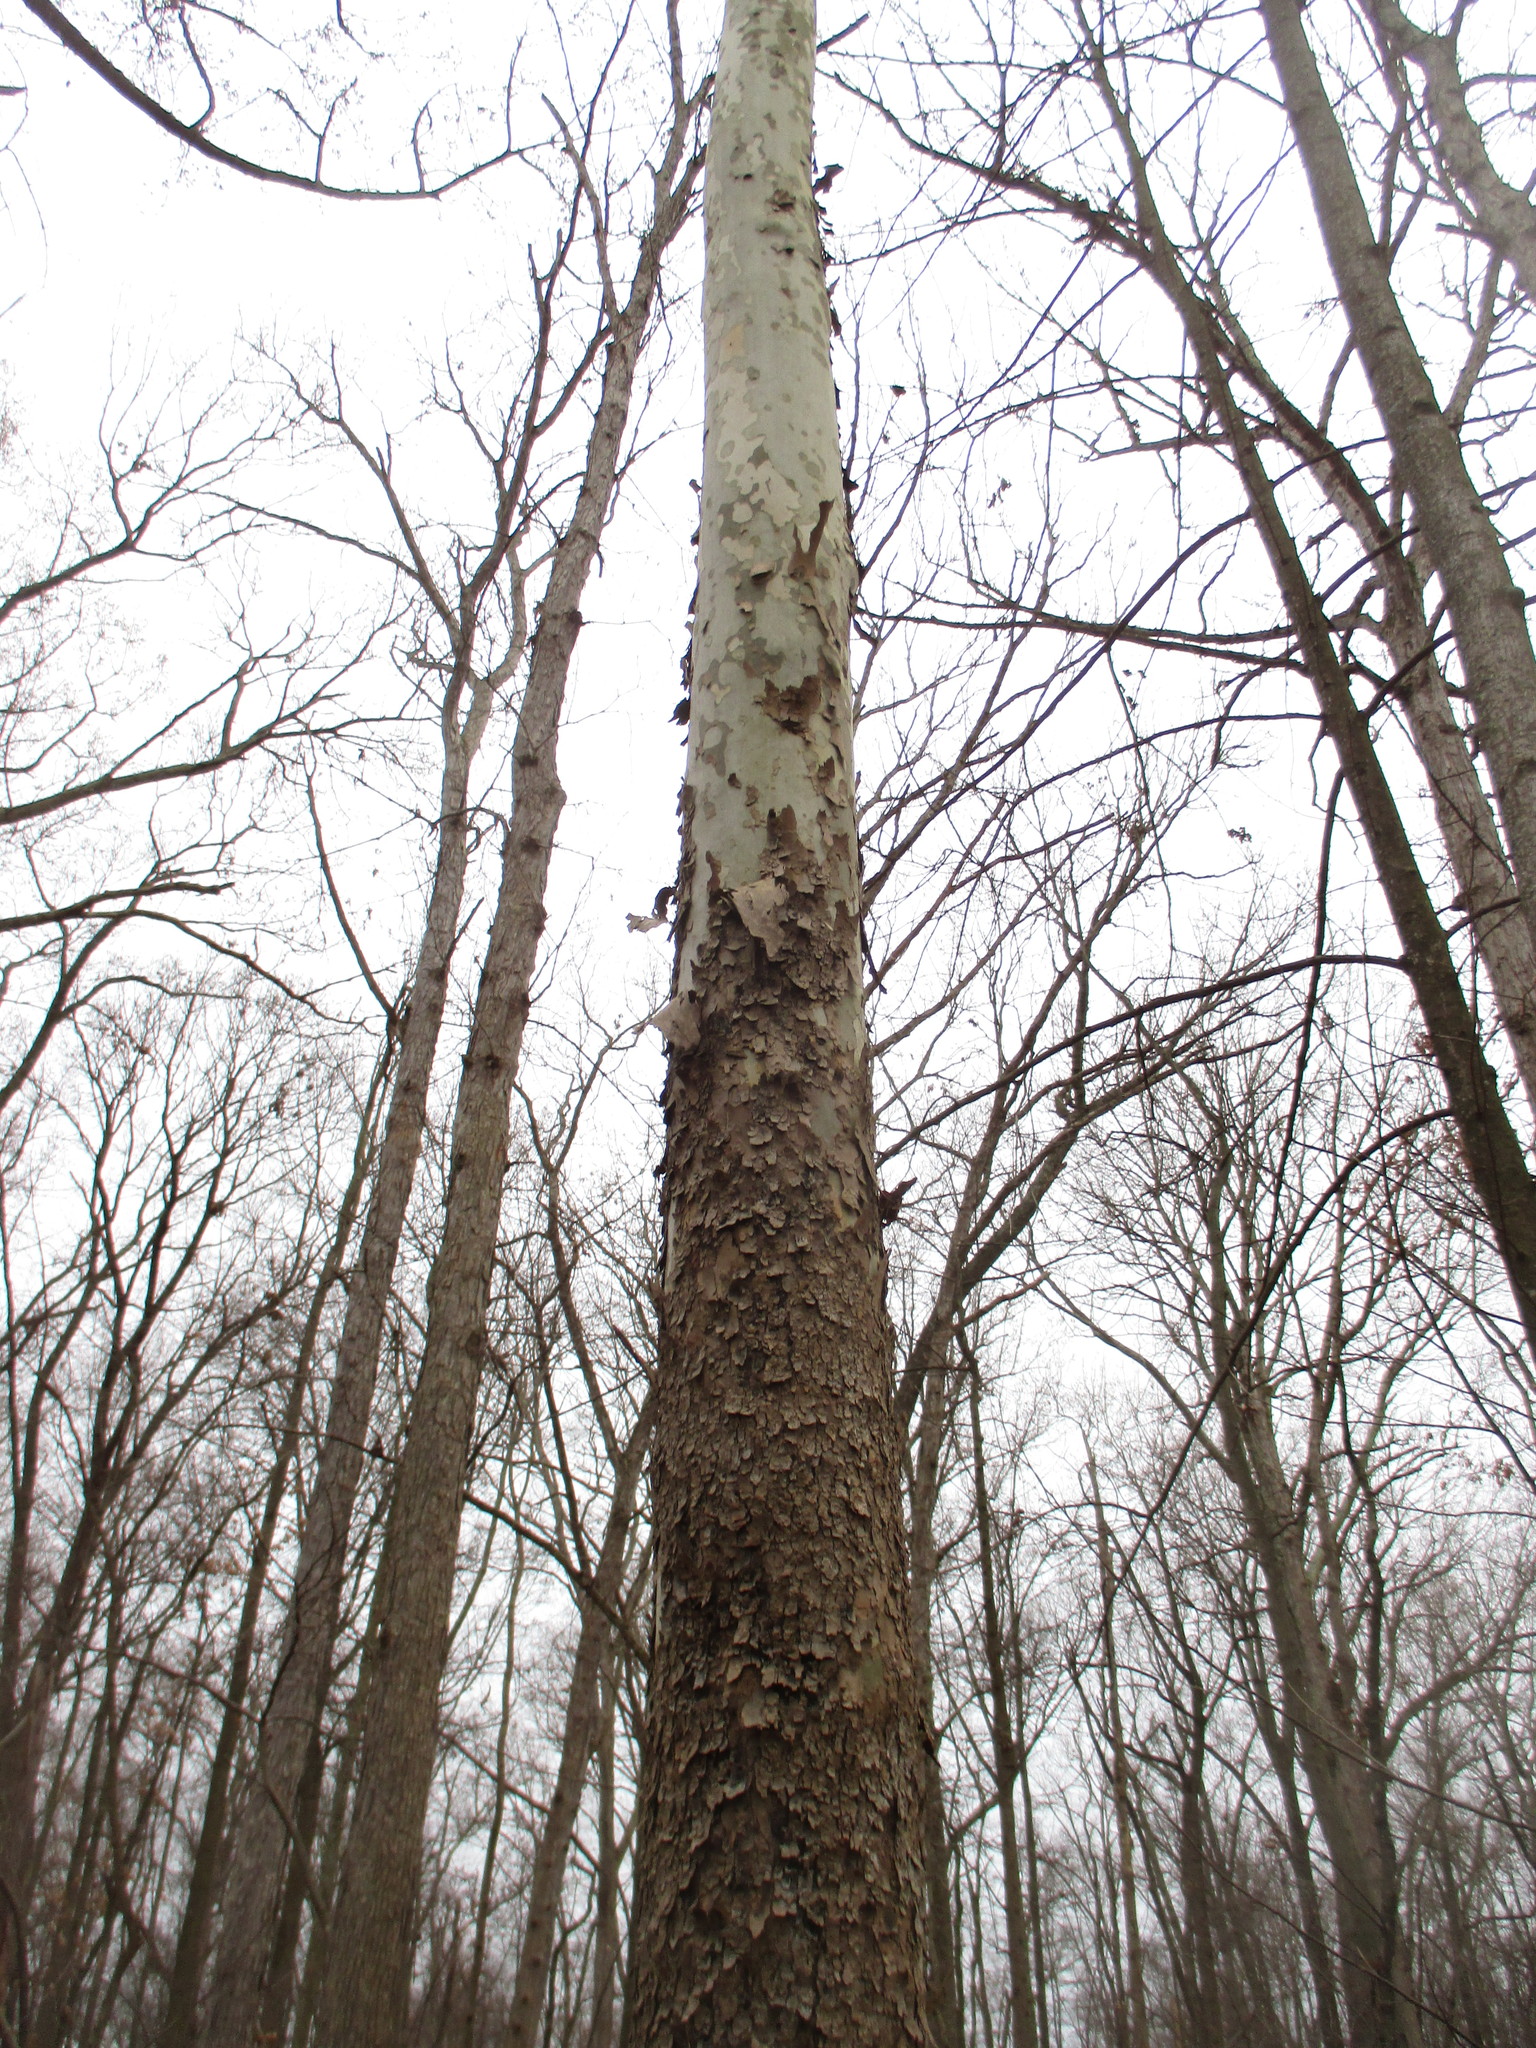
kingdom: Plantae
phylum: Tracheophyta
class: Magnoliopsida
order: Proteales
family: Platanaceae
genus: Platanus
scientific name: Platanus occidentalis
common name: American sycamore
